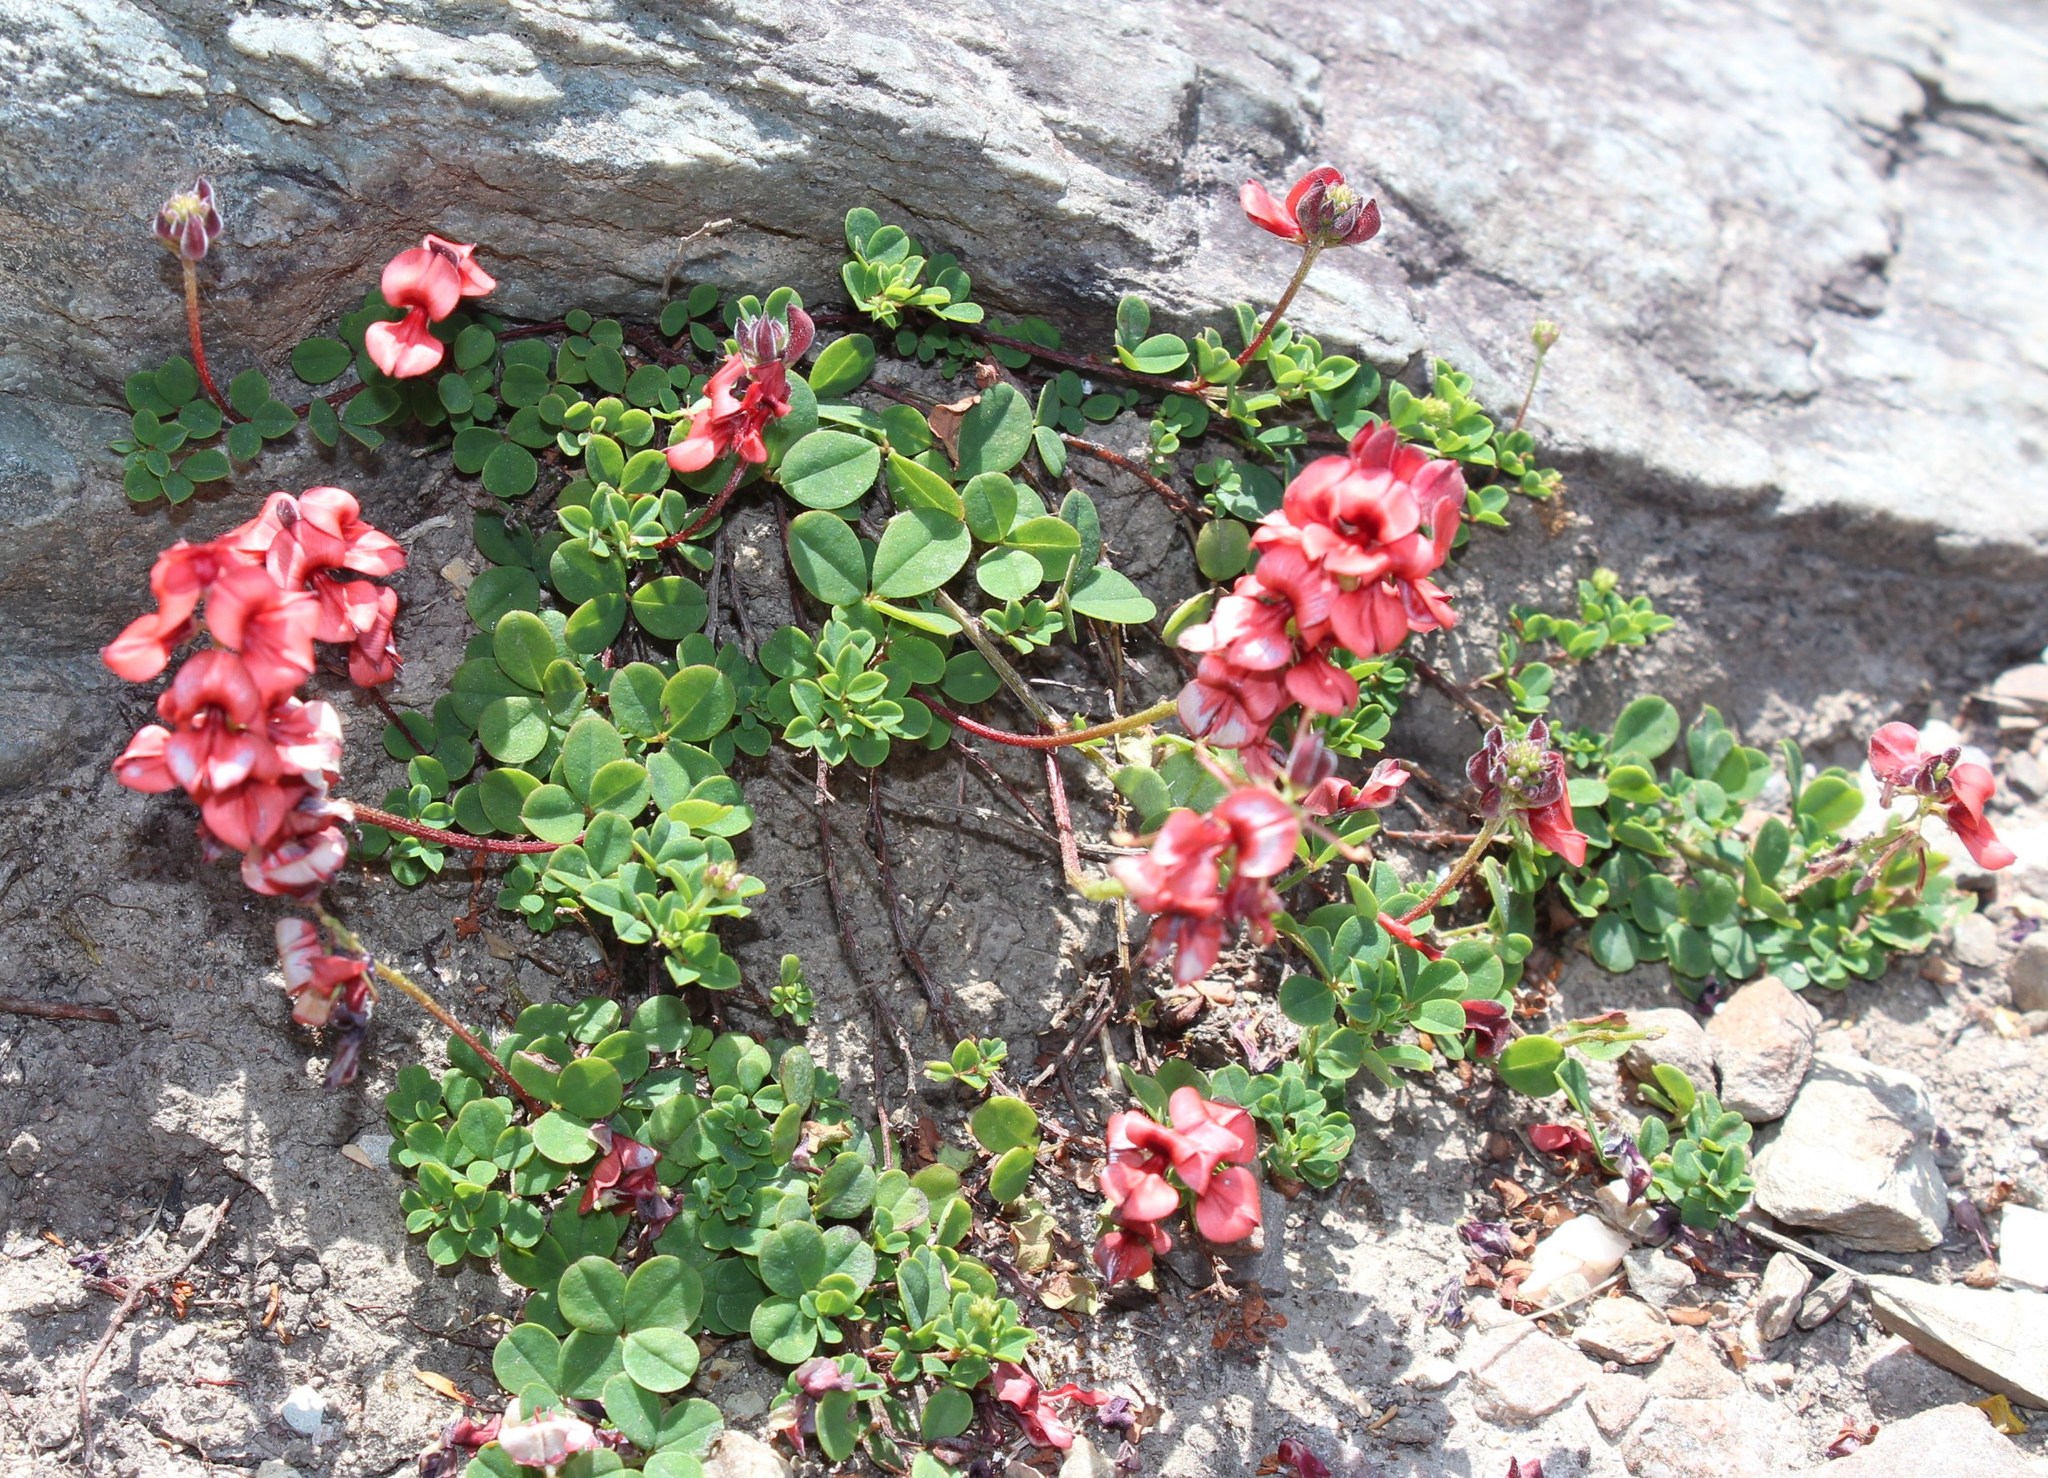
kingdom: Plantae
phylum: Tracheophyta
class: Magnoliopsida
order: Fabales
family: Fabaceae
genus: Indigofera
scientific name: Indigofera porrecta
